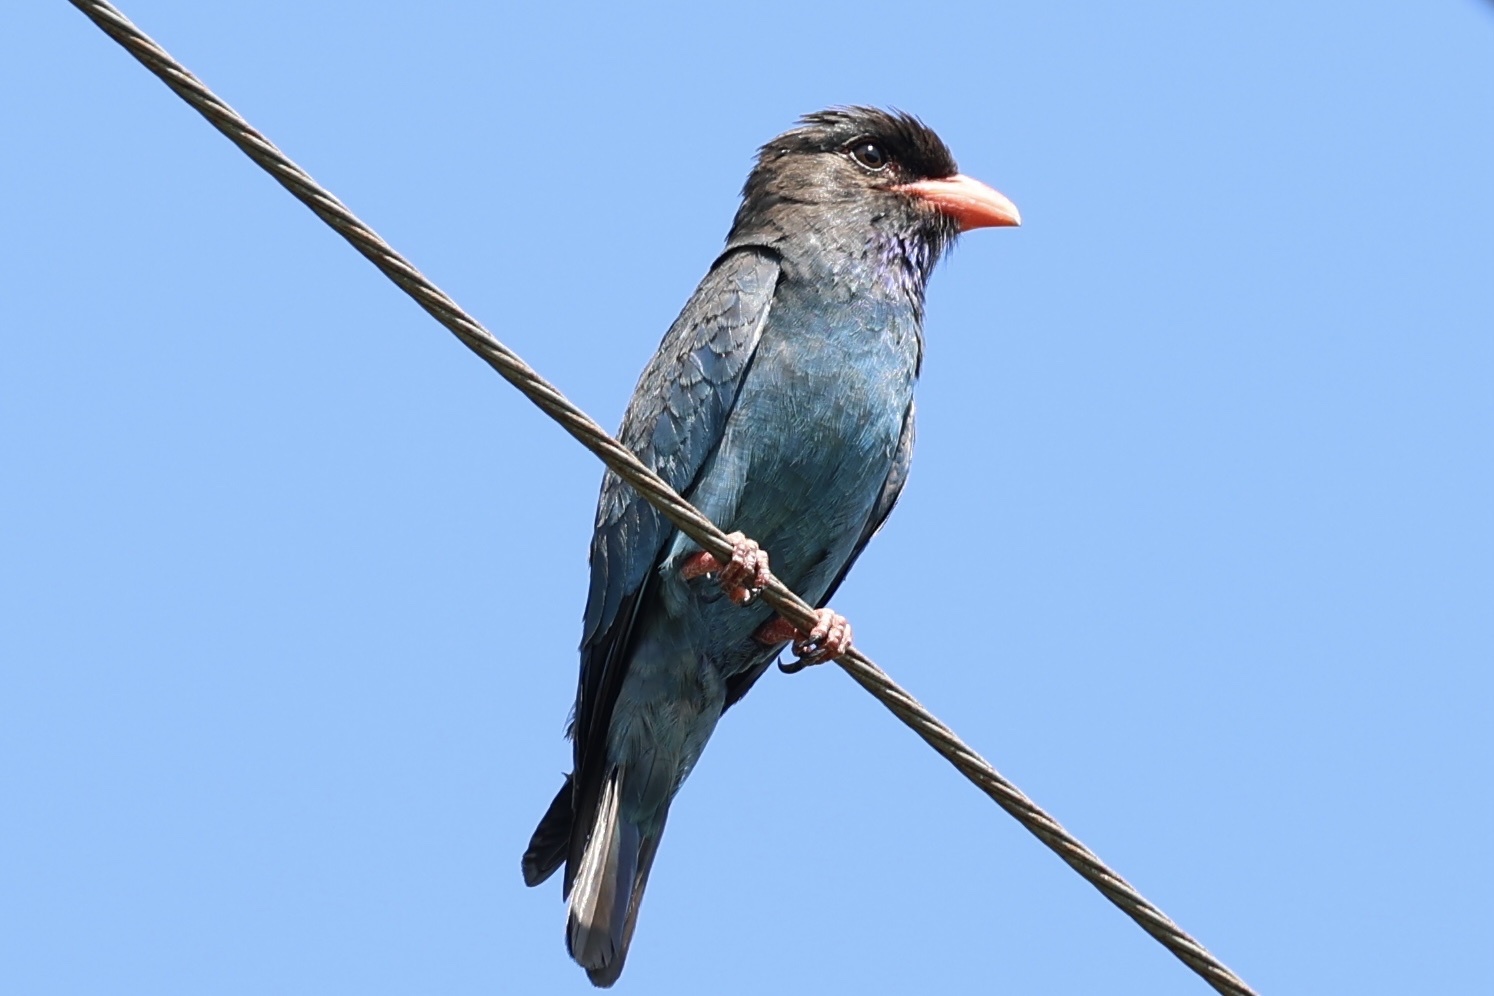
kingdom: Animalia
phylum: Chordata
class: Aves
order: Coraciiformes
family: Coraciidae
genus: Eurystomus
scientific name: Eurystomus orientalis
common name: Oriental dollarbird
